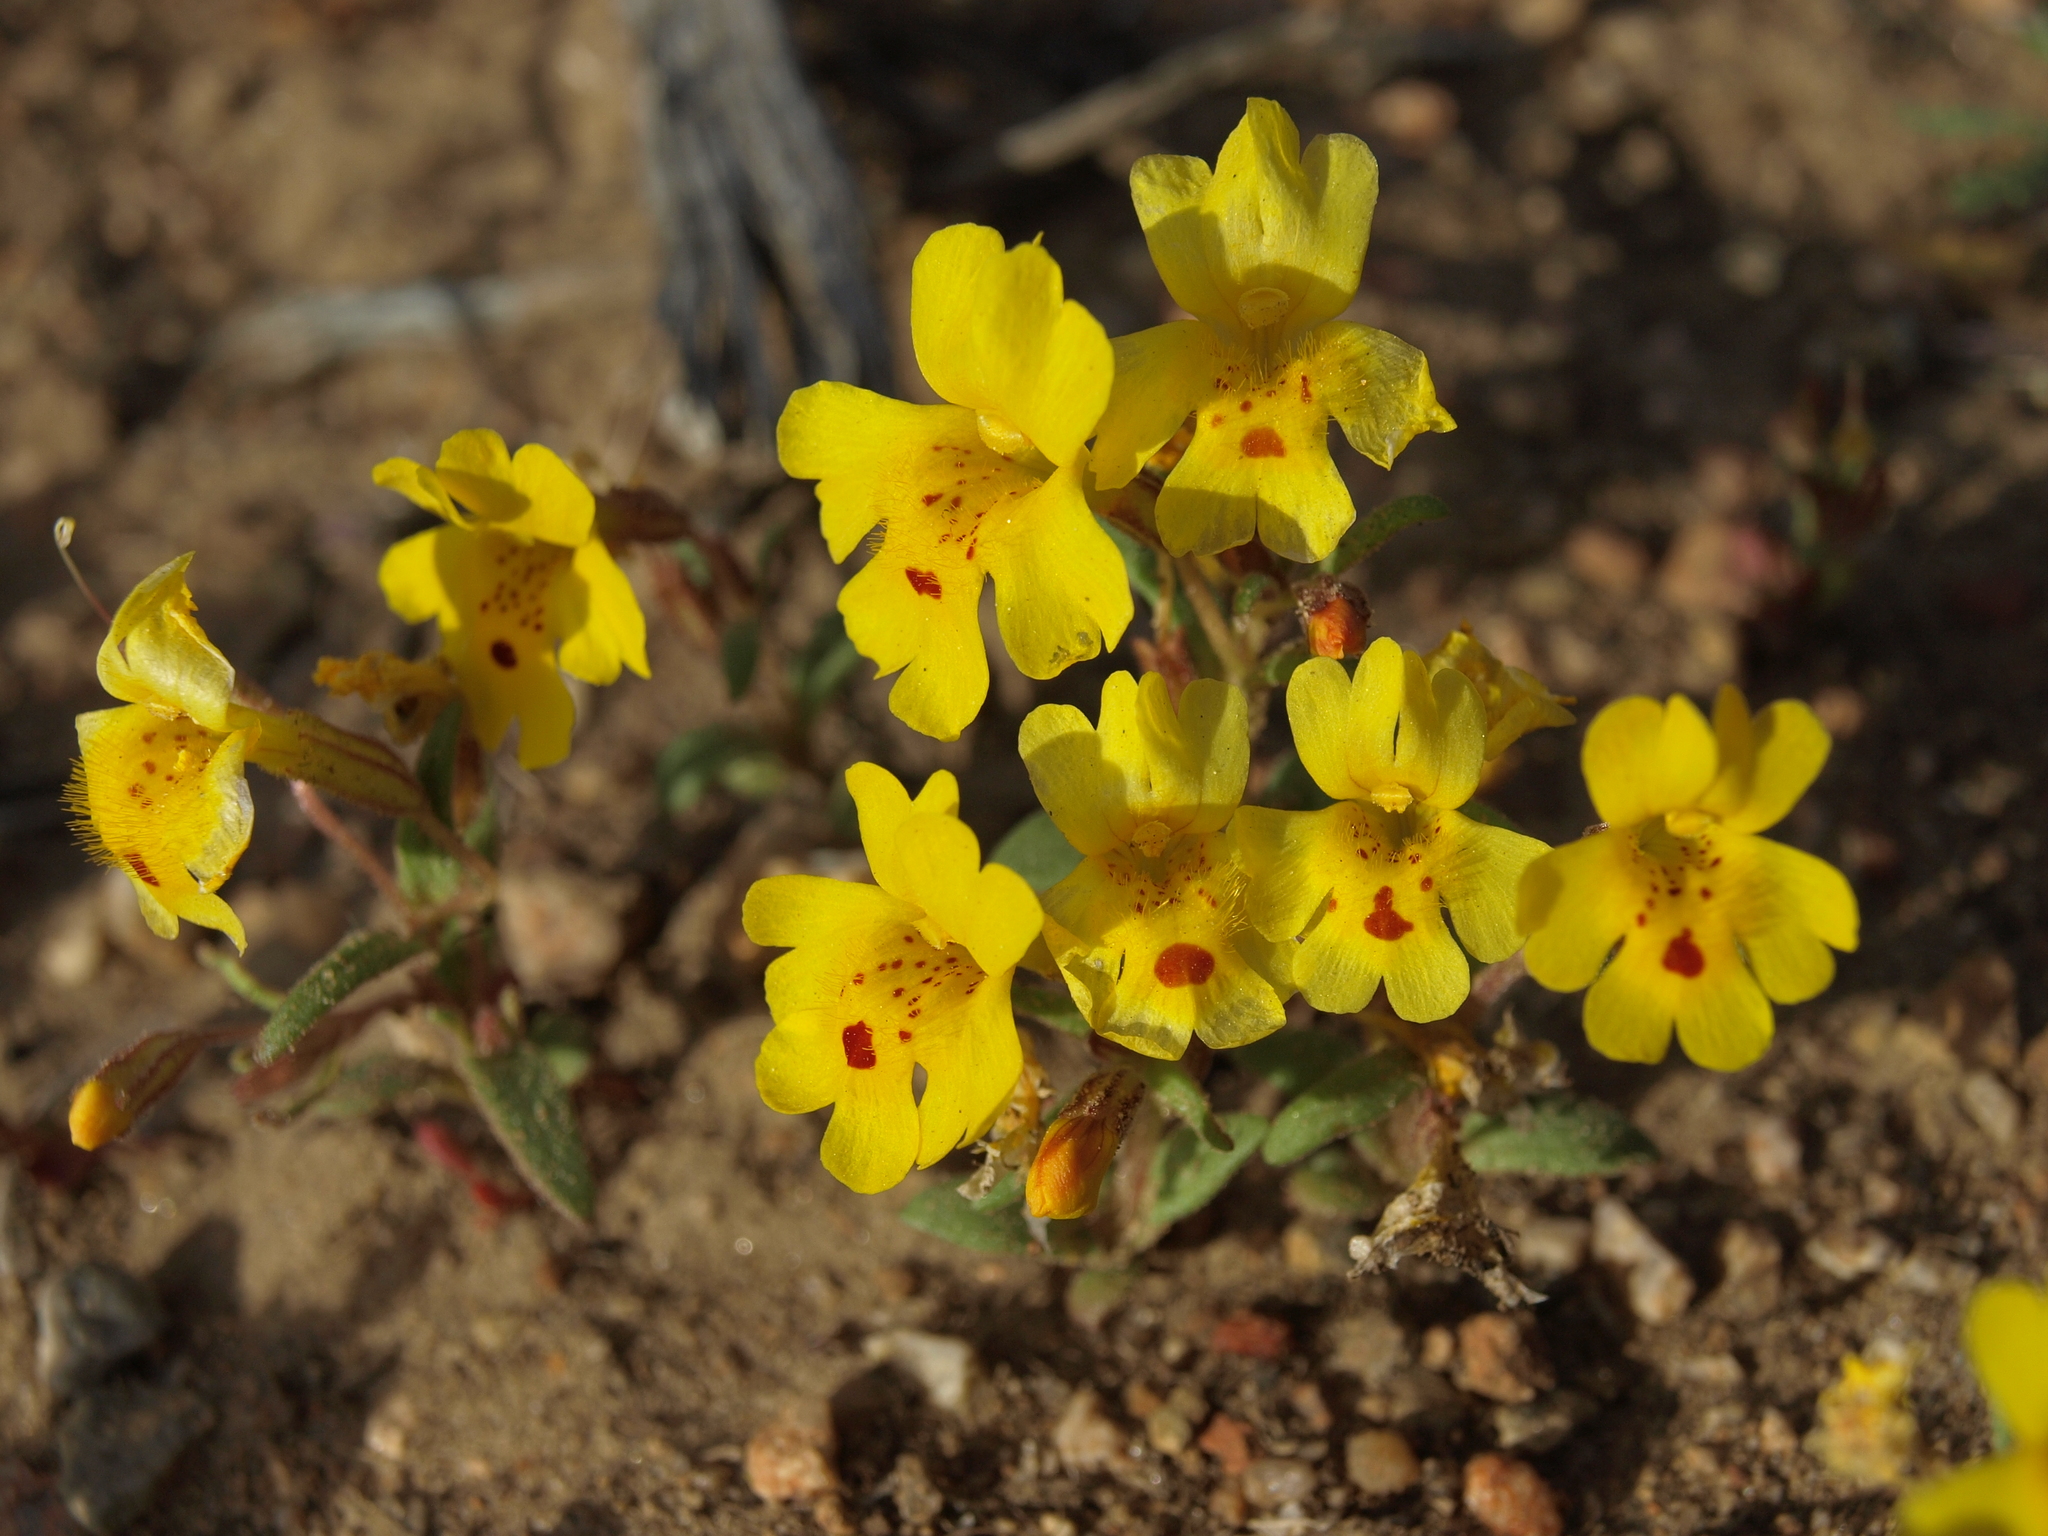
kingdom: Plantae
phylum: Tracheophyta
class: Magnoliopsida
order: Lamiales
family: Phrymaceae
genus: Erythranthe
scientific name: Erythranthe carsonensis
